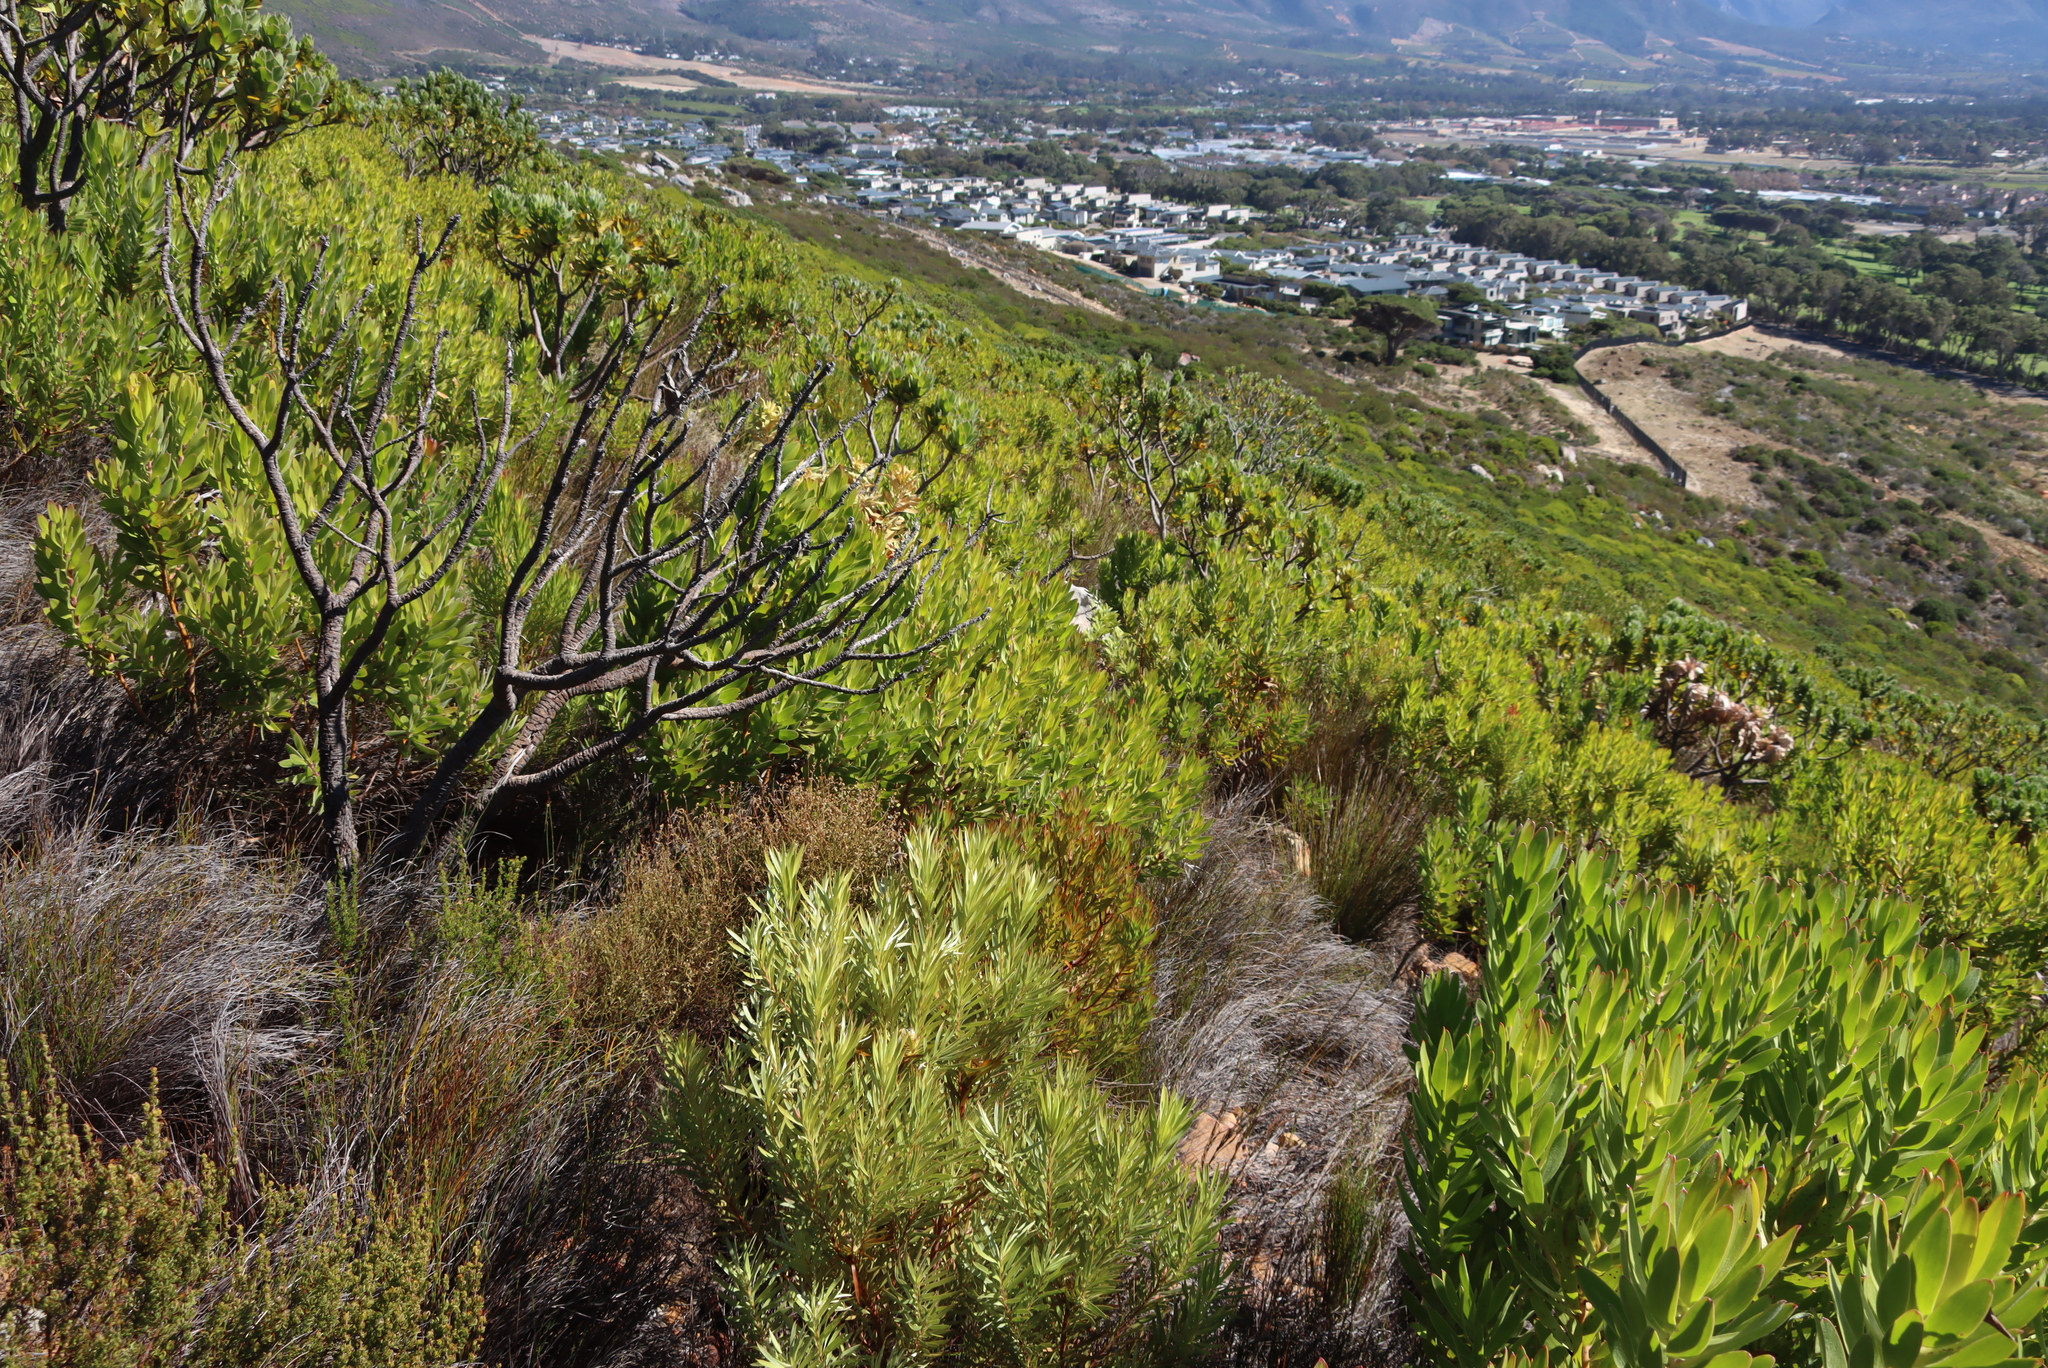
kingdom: Plantae
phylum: Tracheophyta
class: Magnoliopsida
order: Proteales
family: Proteaceae
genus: Leucadendron
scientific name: Leucadendron xanthoconus
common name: Sickle-leaf conebush
